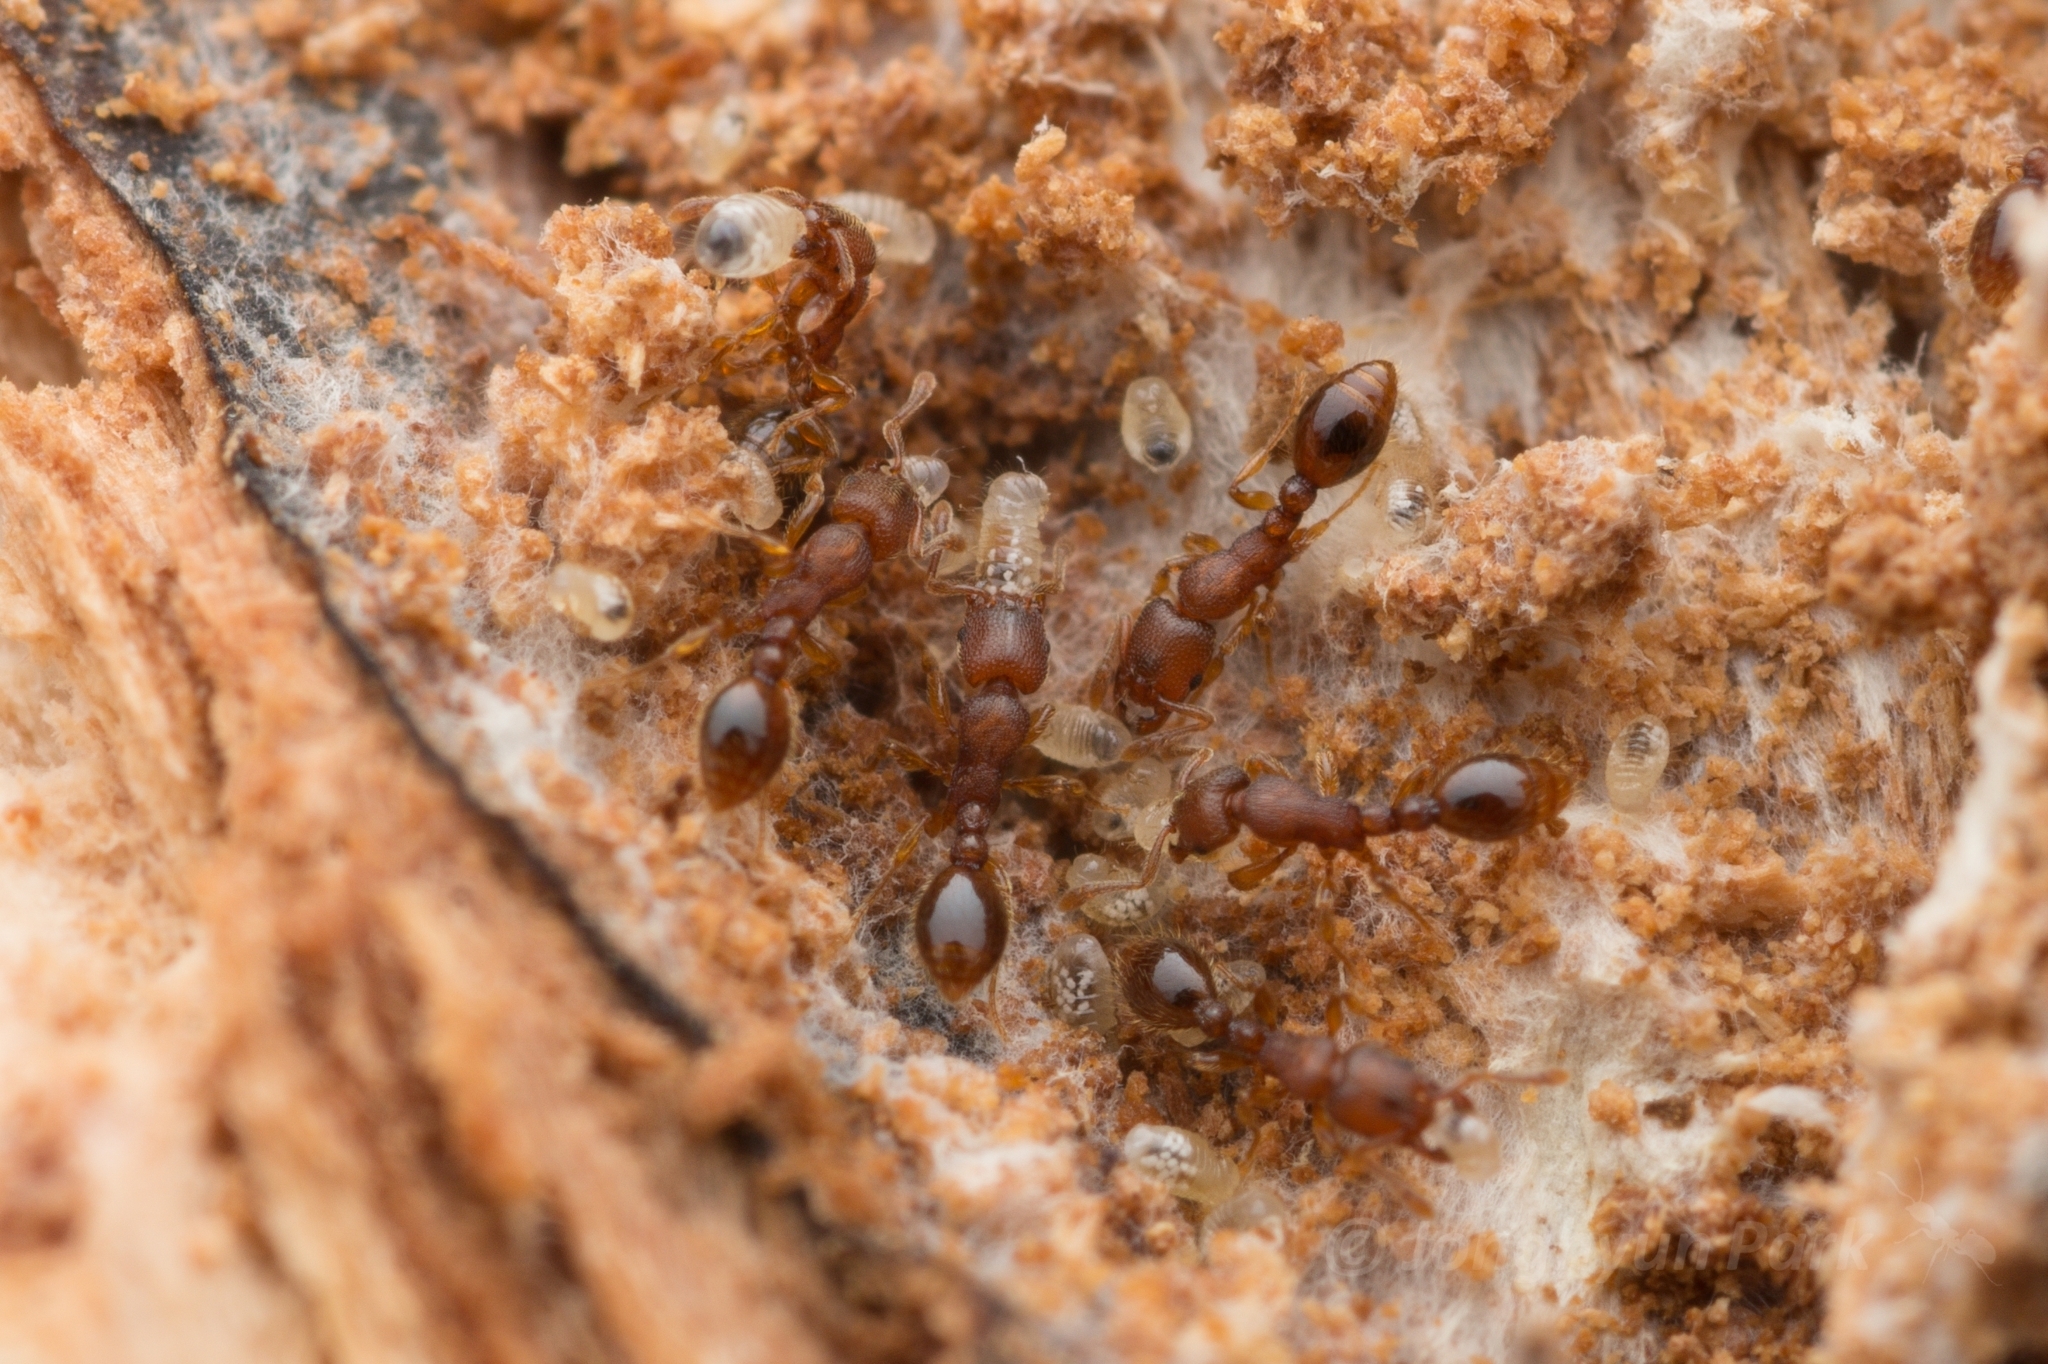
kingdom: Animalia
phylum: Arthropoda
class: Insecta
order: Hymenoptera
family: Formicidae
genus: Vollenhovia
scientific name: Vollenhovia emeryi
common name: Ant
